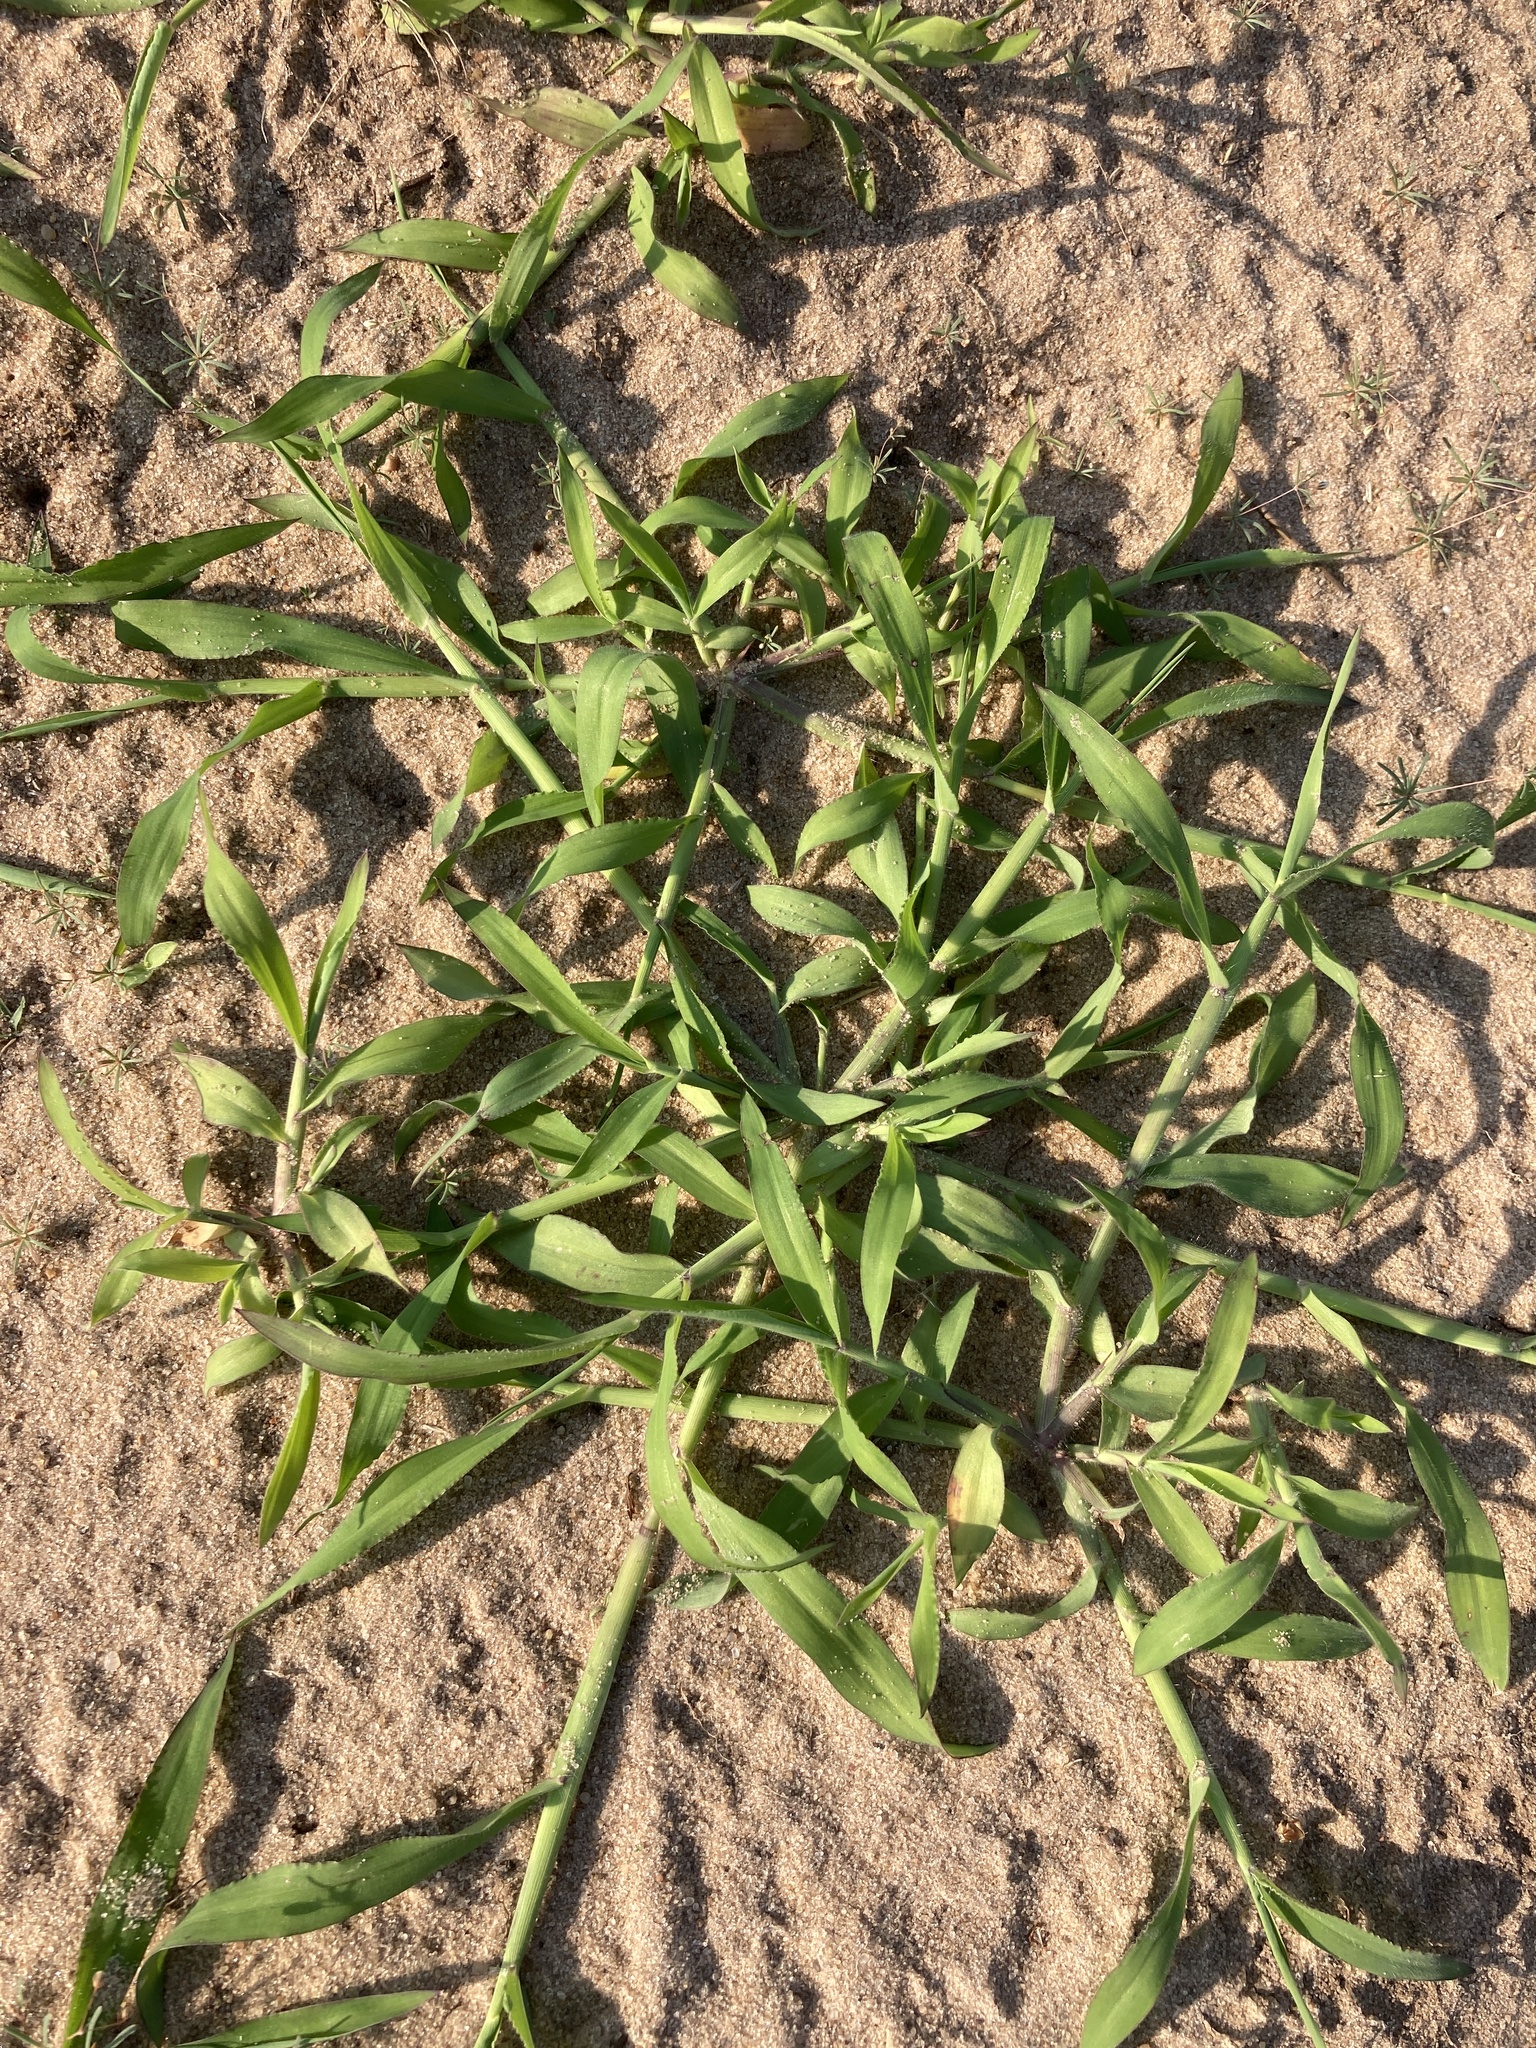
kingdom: Plantae
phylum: Tracheophyta
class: Liliopsida
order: Poales
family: Poaceae
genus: Digitaria
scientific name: Digitaria sanguinalis
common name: Hairy crabgrass
